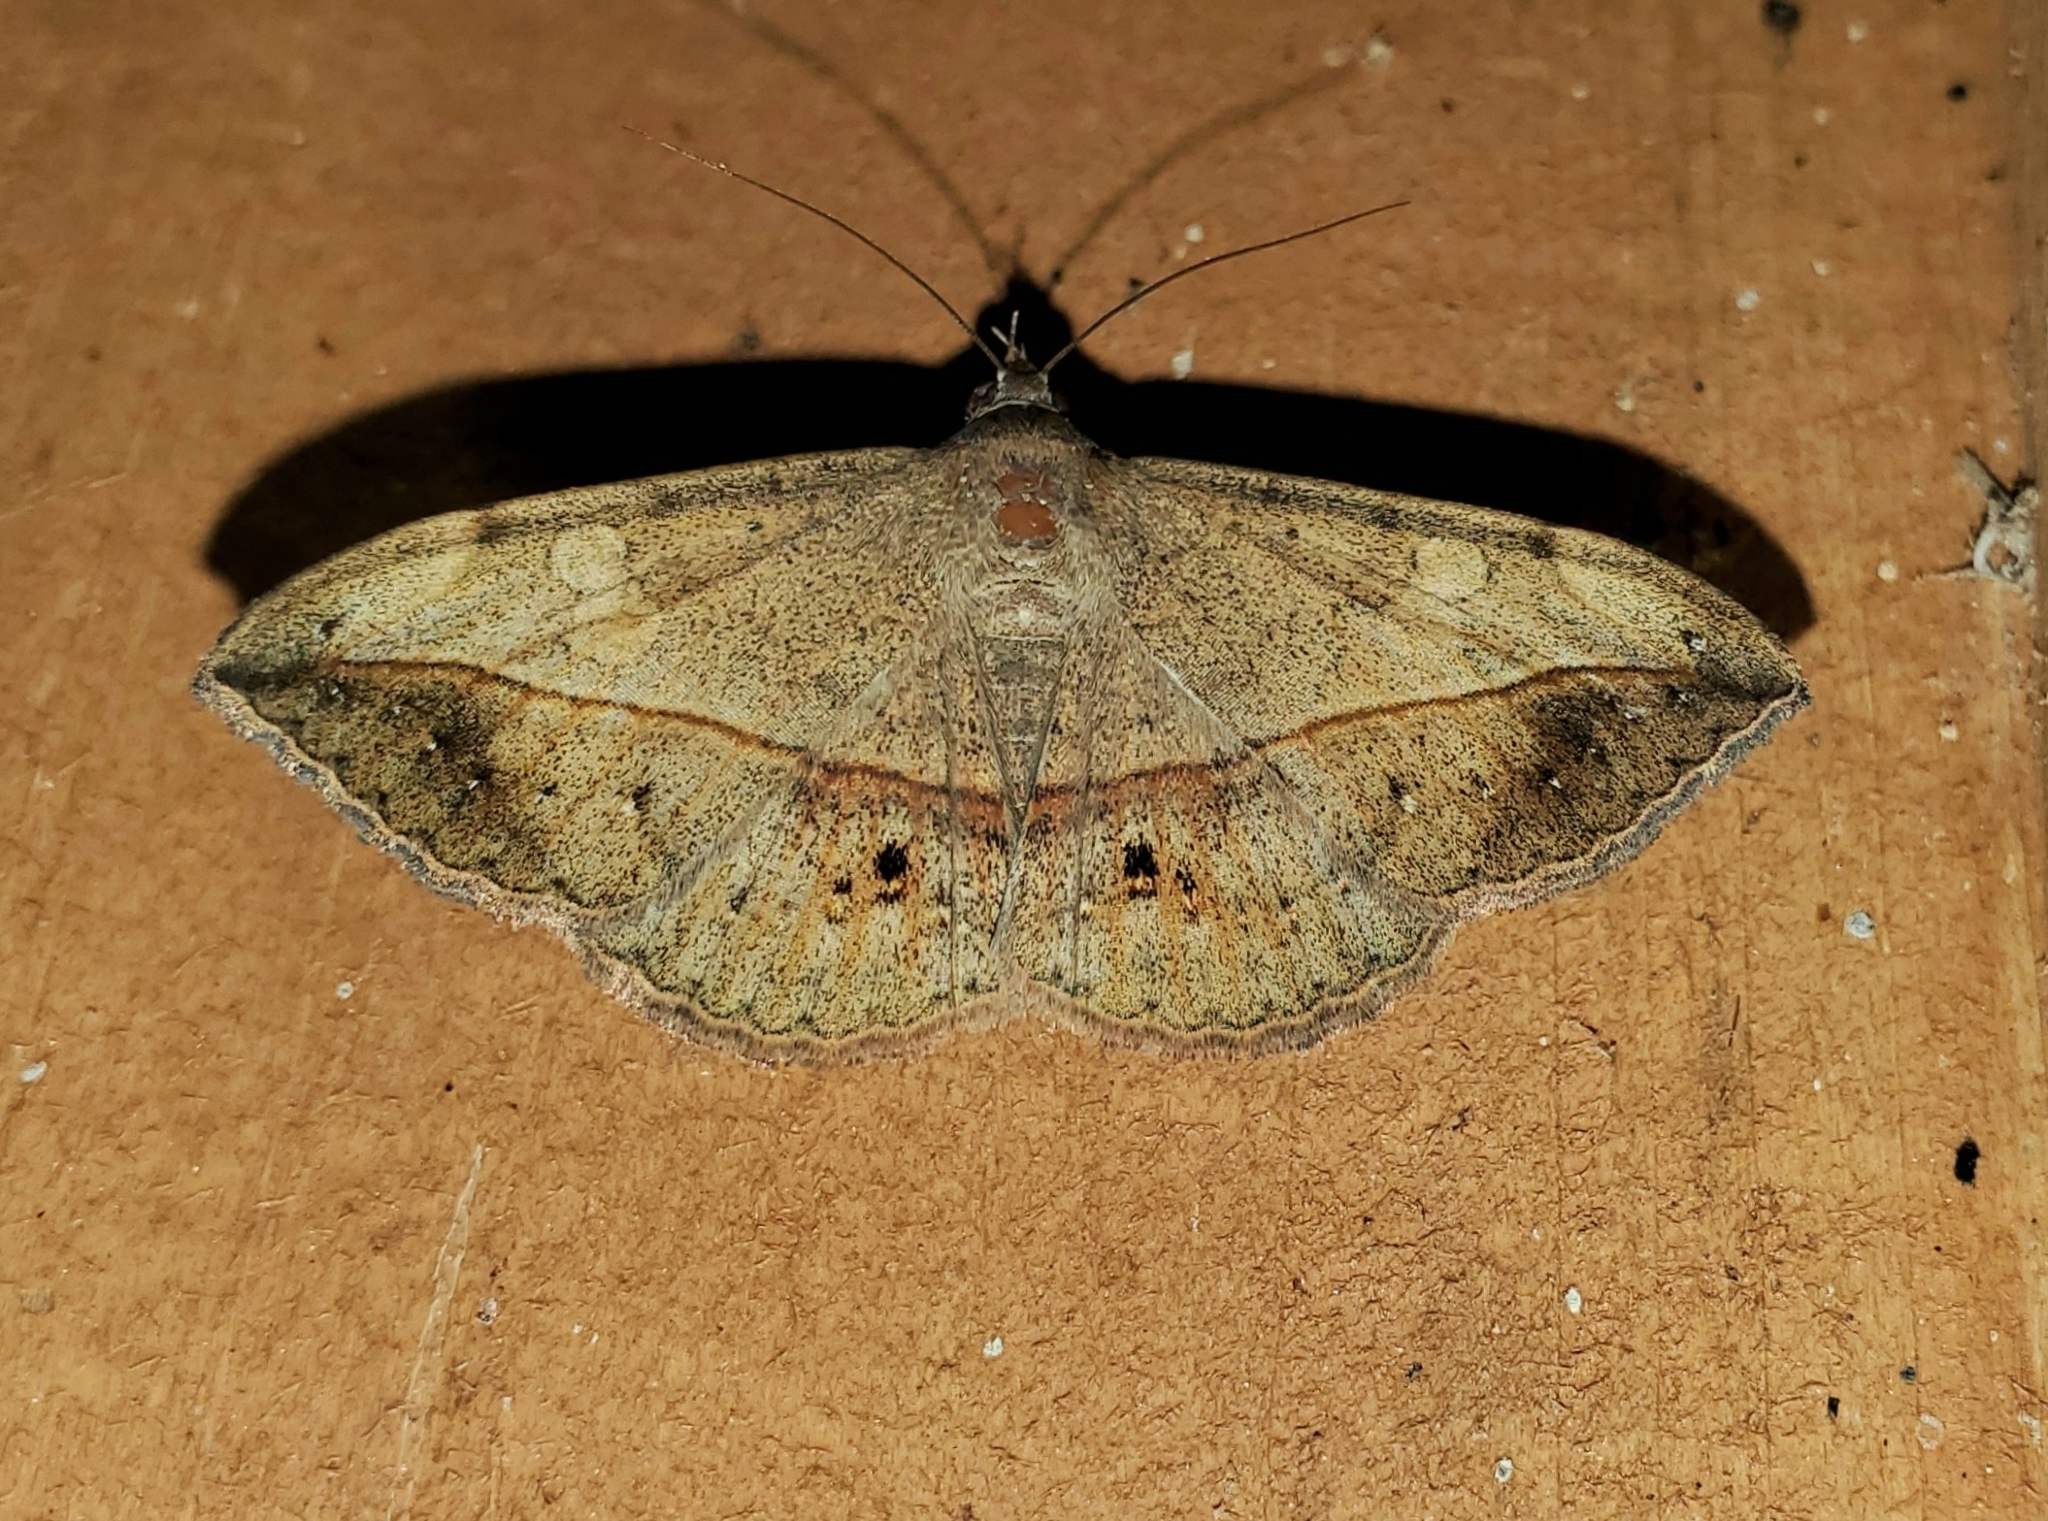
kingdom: Animalia
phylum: Arthropoda
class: Insecta
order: Lepidoptera
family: Erebidae
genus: Anticarsia
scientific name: Anticarsia gemmatalis
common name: Cutworm moth
